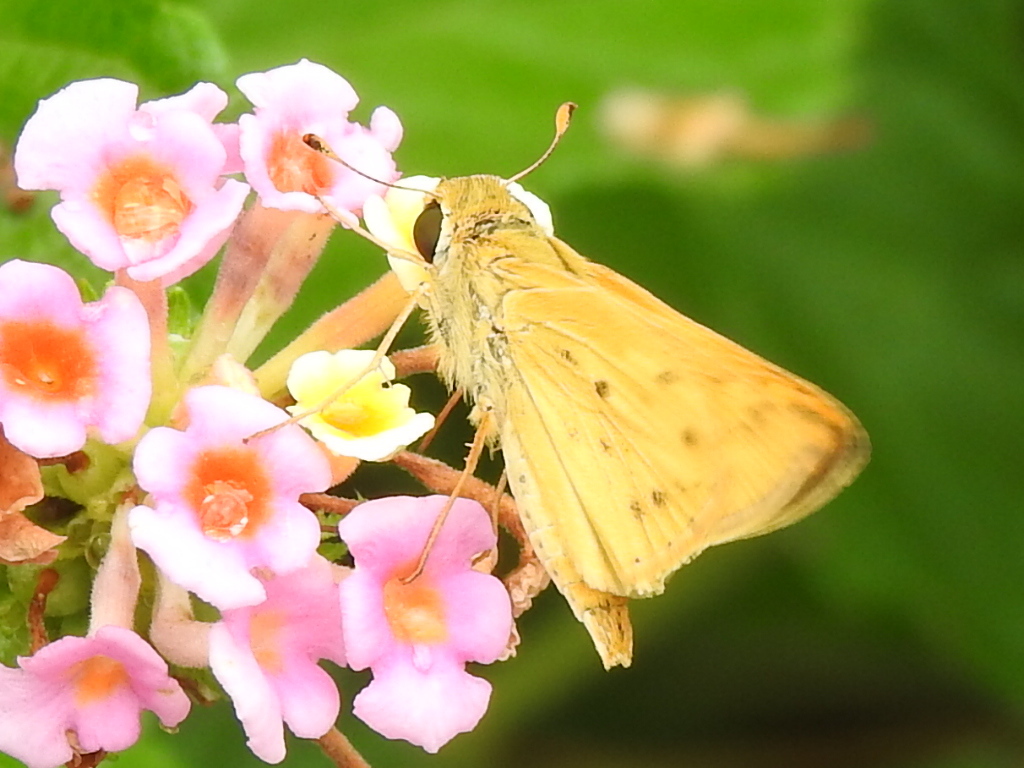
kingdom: Animalia
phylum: Arthropoda
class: Insecta
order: Lepidoptera
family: Hesperiidae
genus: Hylephila
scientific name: Hylephila phyleus
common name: Fiery skipper
